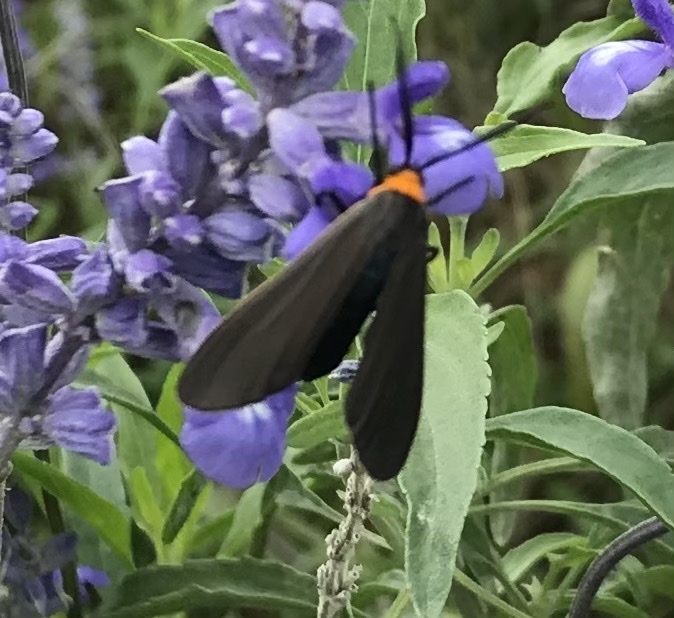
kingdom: Animalia
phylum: Arthropoda
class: Insecta
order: Lepidoptera
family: Erebidae
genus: Cisseps
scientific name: Cisseps fulvicollis
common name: Yellow-collared scape moth
